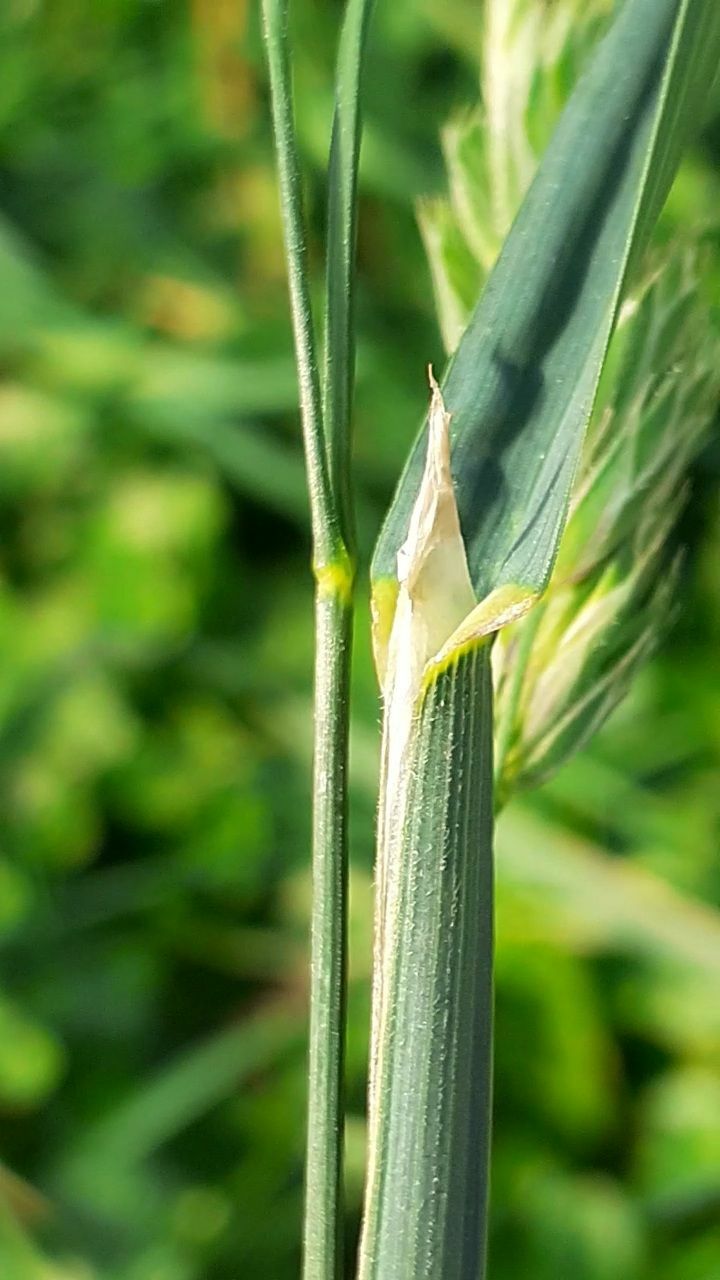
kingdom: Plantae
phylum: Tracheophyta
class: Liliopsida
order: Poales
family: Poaceae
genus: Dactylis
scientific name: Dactylis glomerata
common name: Orchardgrass
